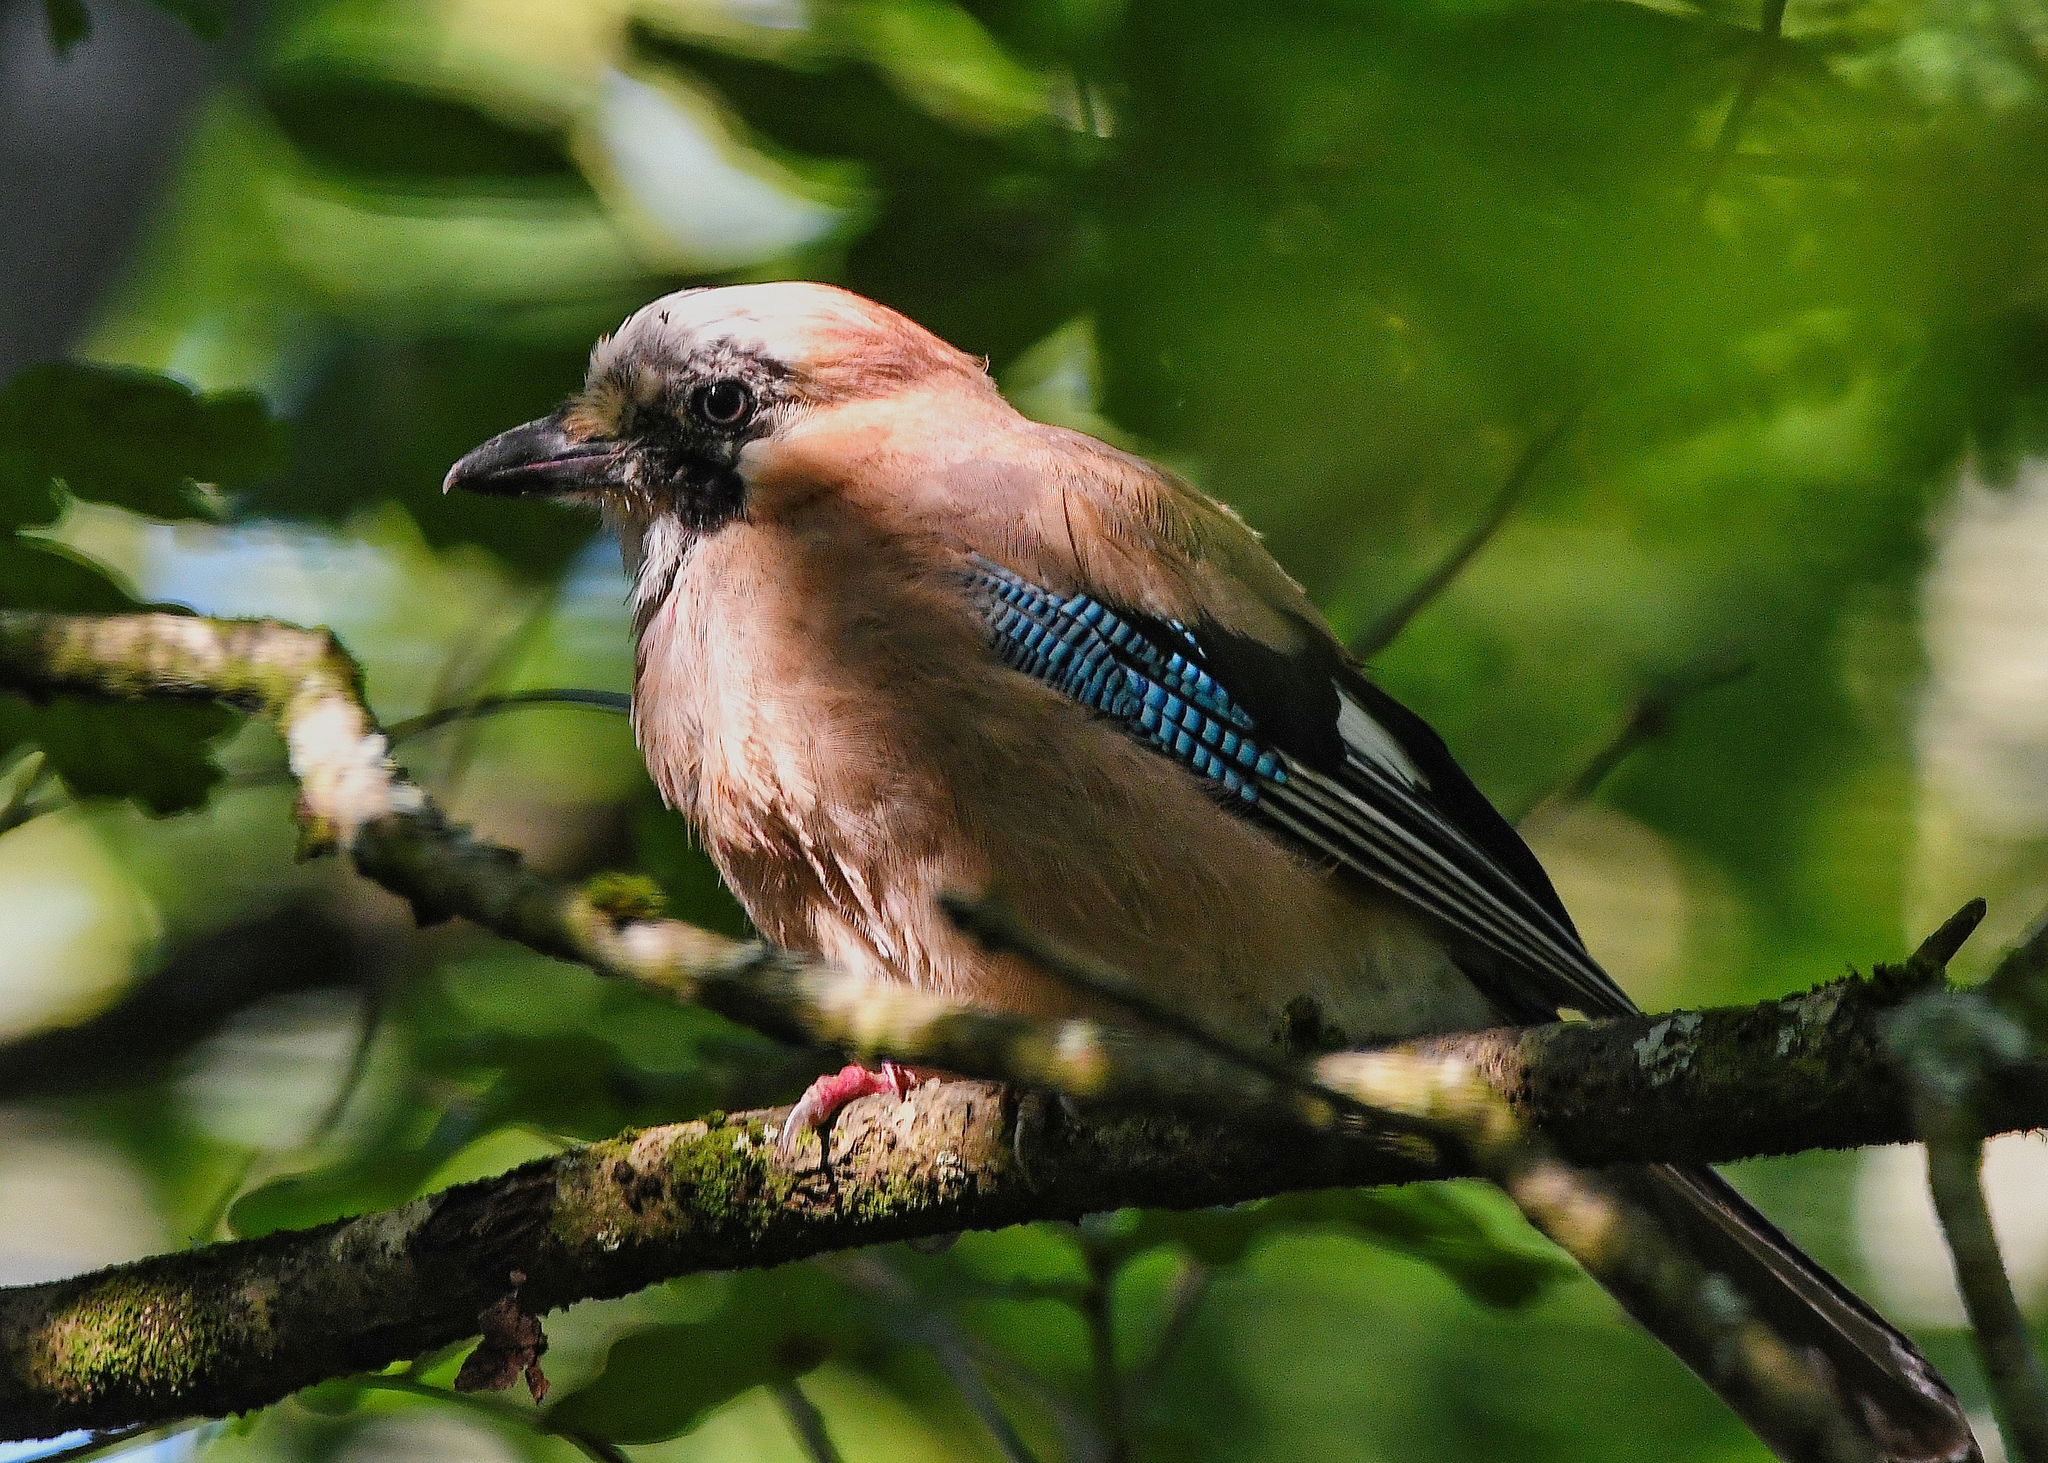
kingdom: Animalia
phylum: Chordata
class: Aves
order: Passeriformes
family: Corvidae
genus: Garrulus
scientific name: Garrulus glandarius
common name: Eurasian jay
